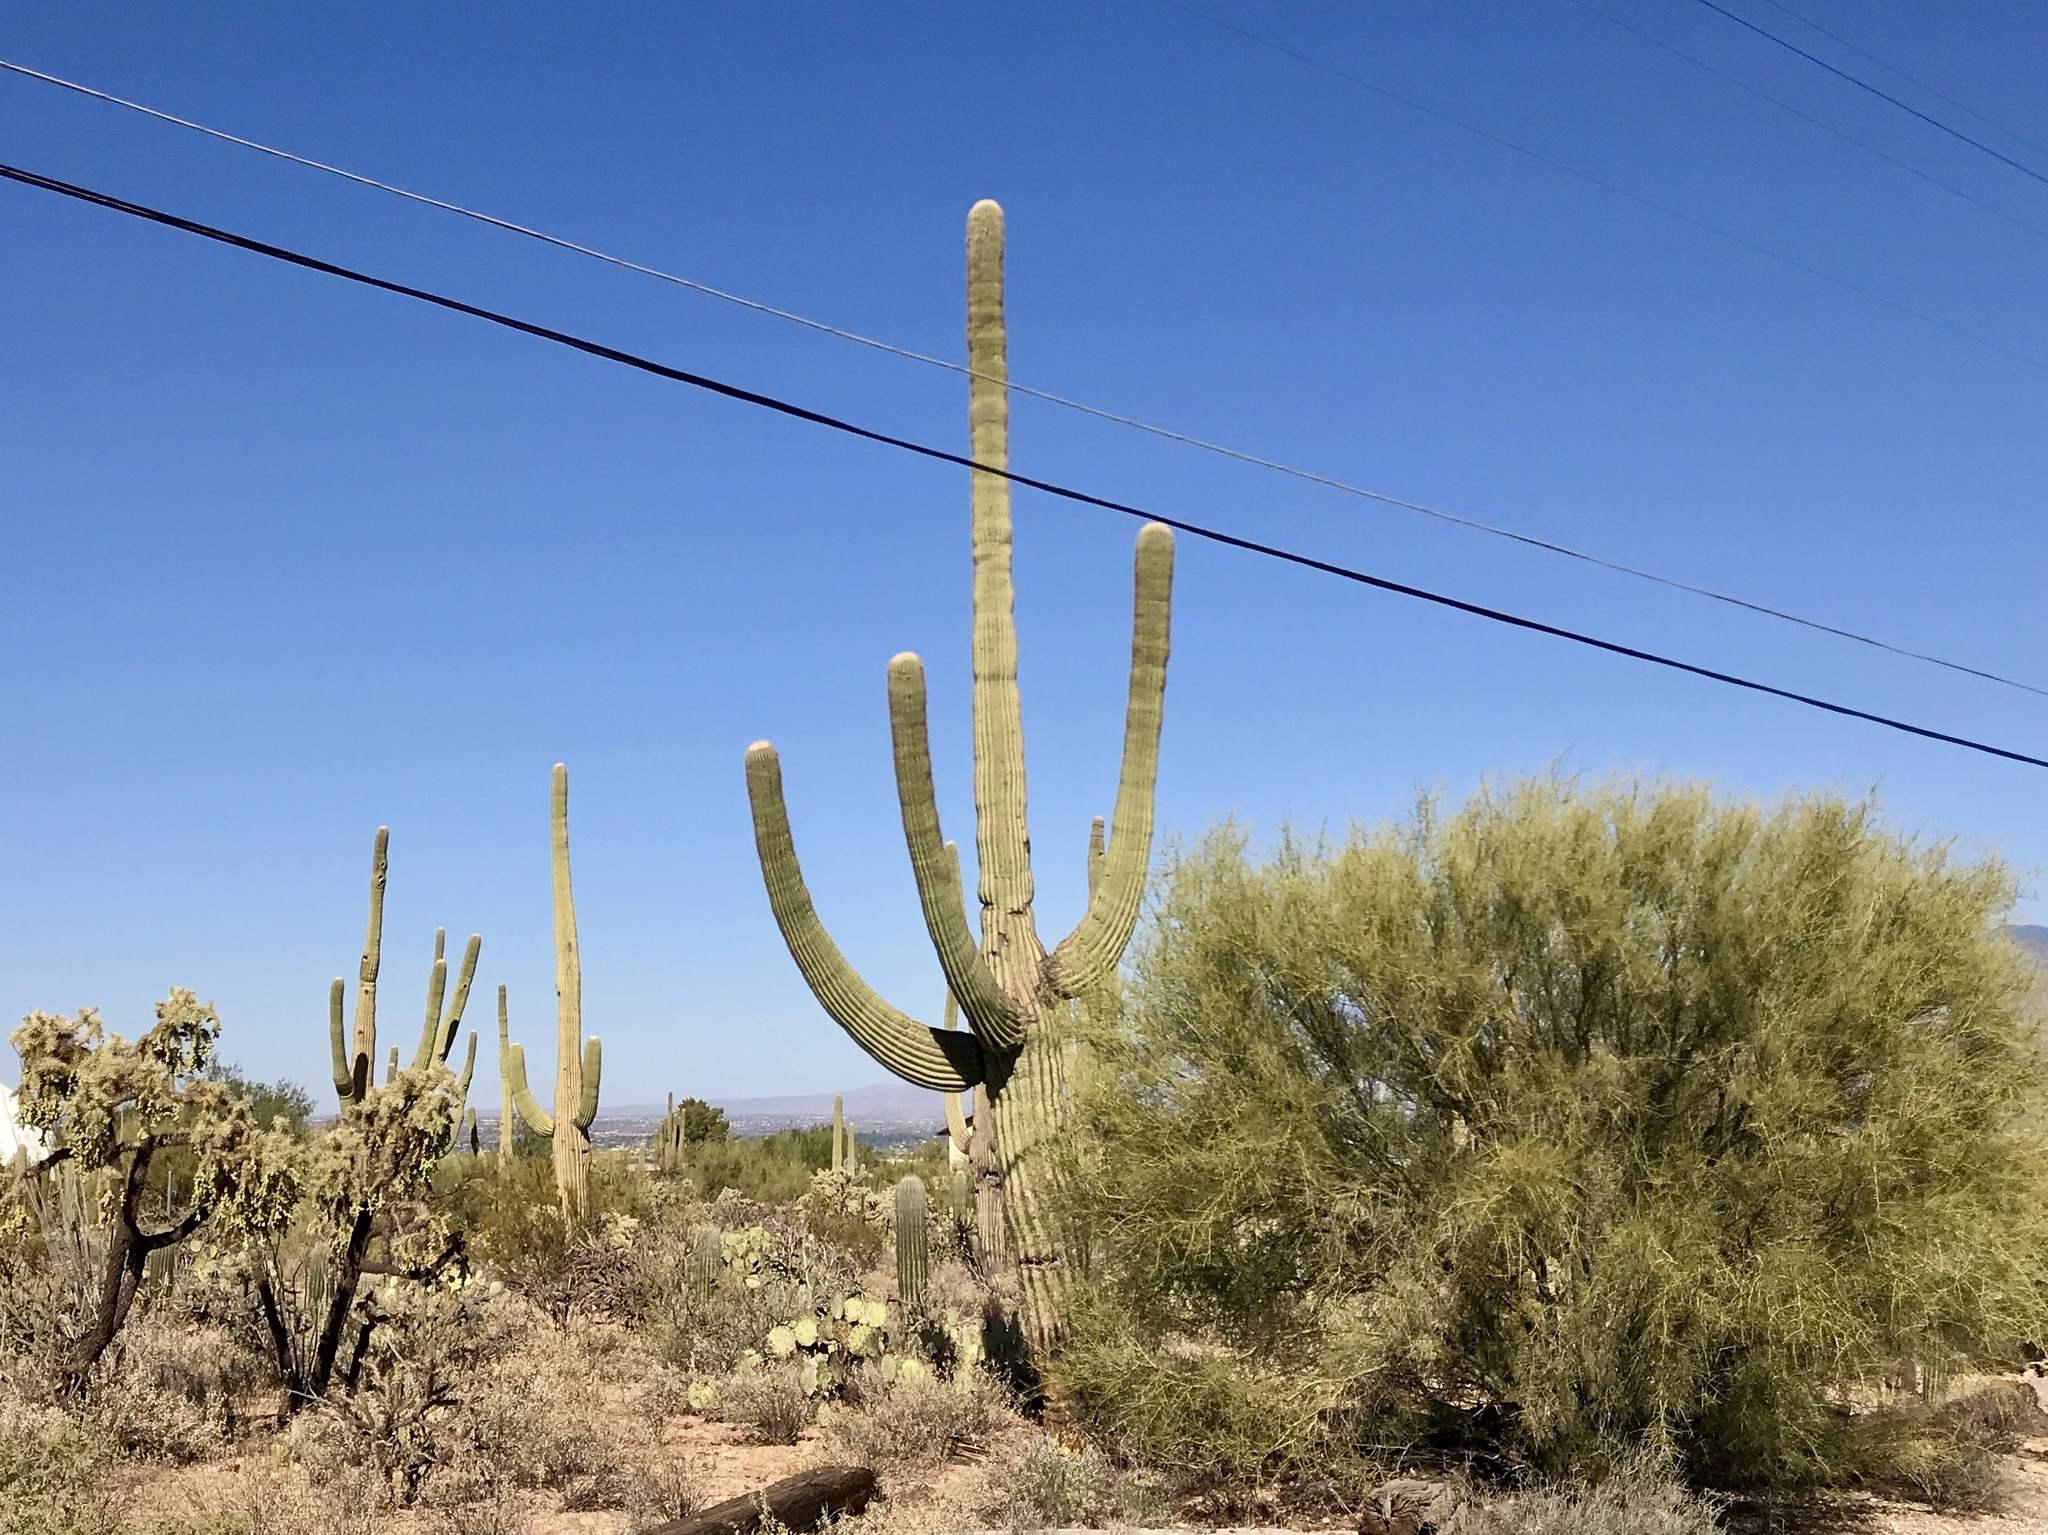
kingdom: Plantae
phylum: Tracheophyta
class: Magnoliopsida
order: Caryophyllales
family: Cactaceae
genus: Carnegiea
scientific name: Carnegiea gigantea
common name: Saguaro
